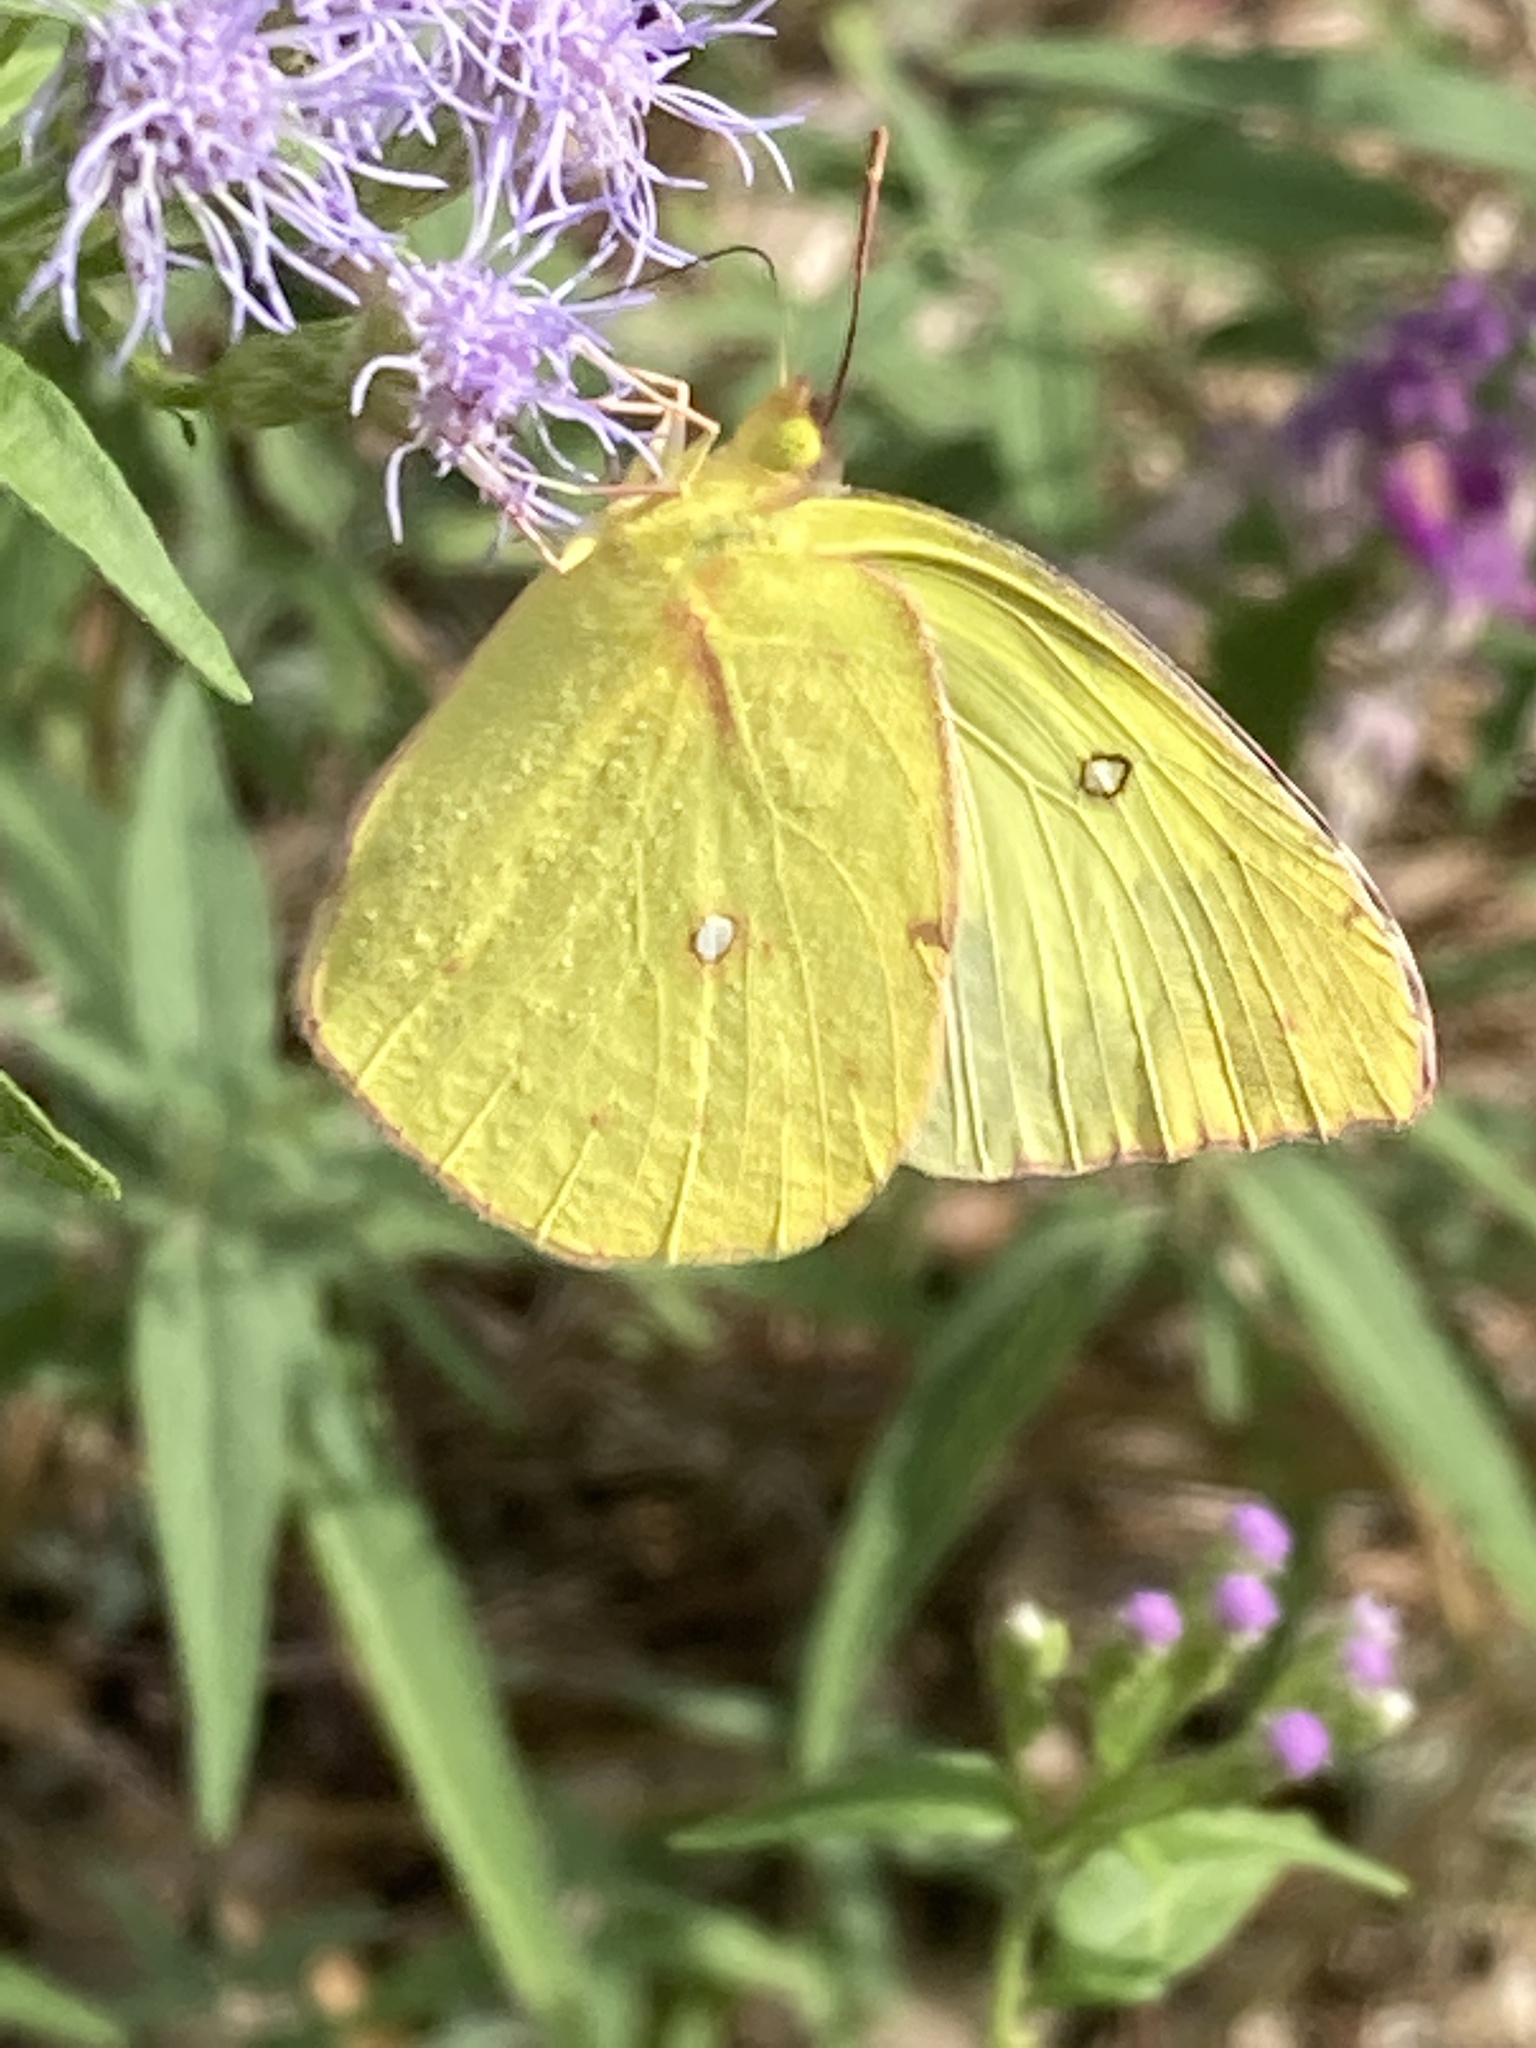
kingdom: Animalia
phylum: Arthropoda
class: Insecta
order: Lepidoptera
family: Pieridae
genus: Zerene
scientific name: Zerene cesonia
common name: Southern dogface
